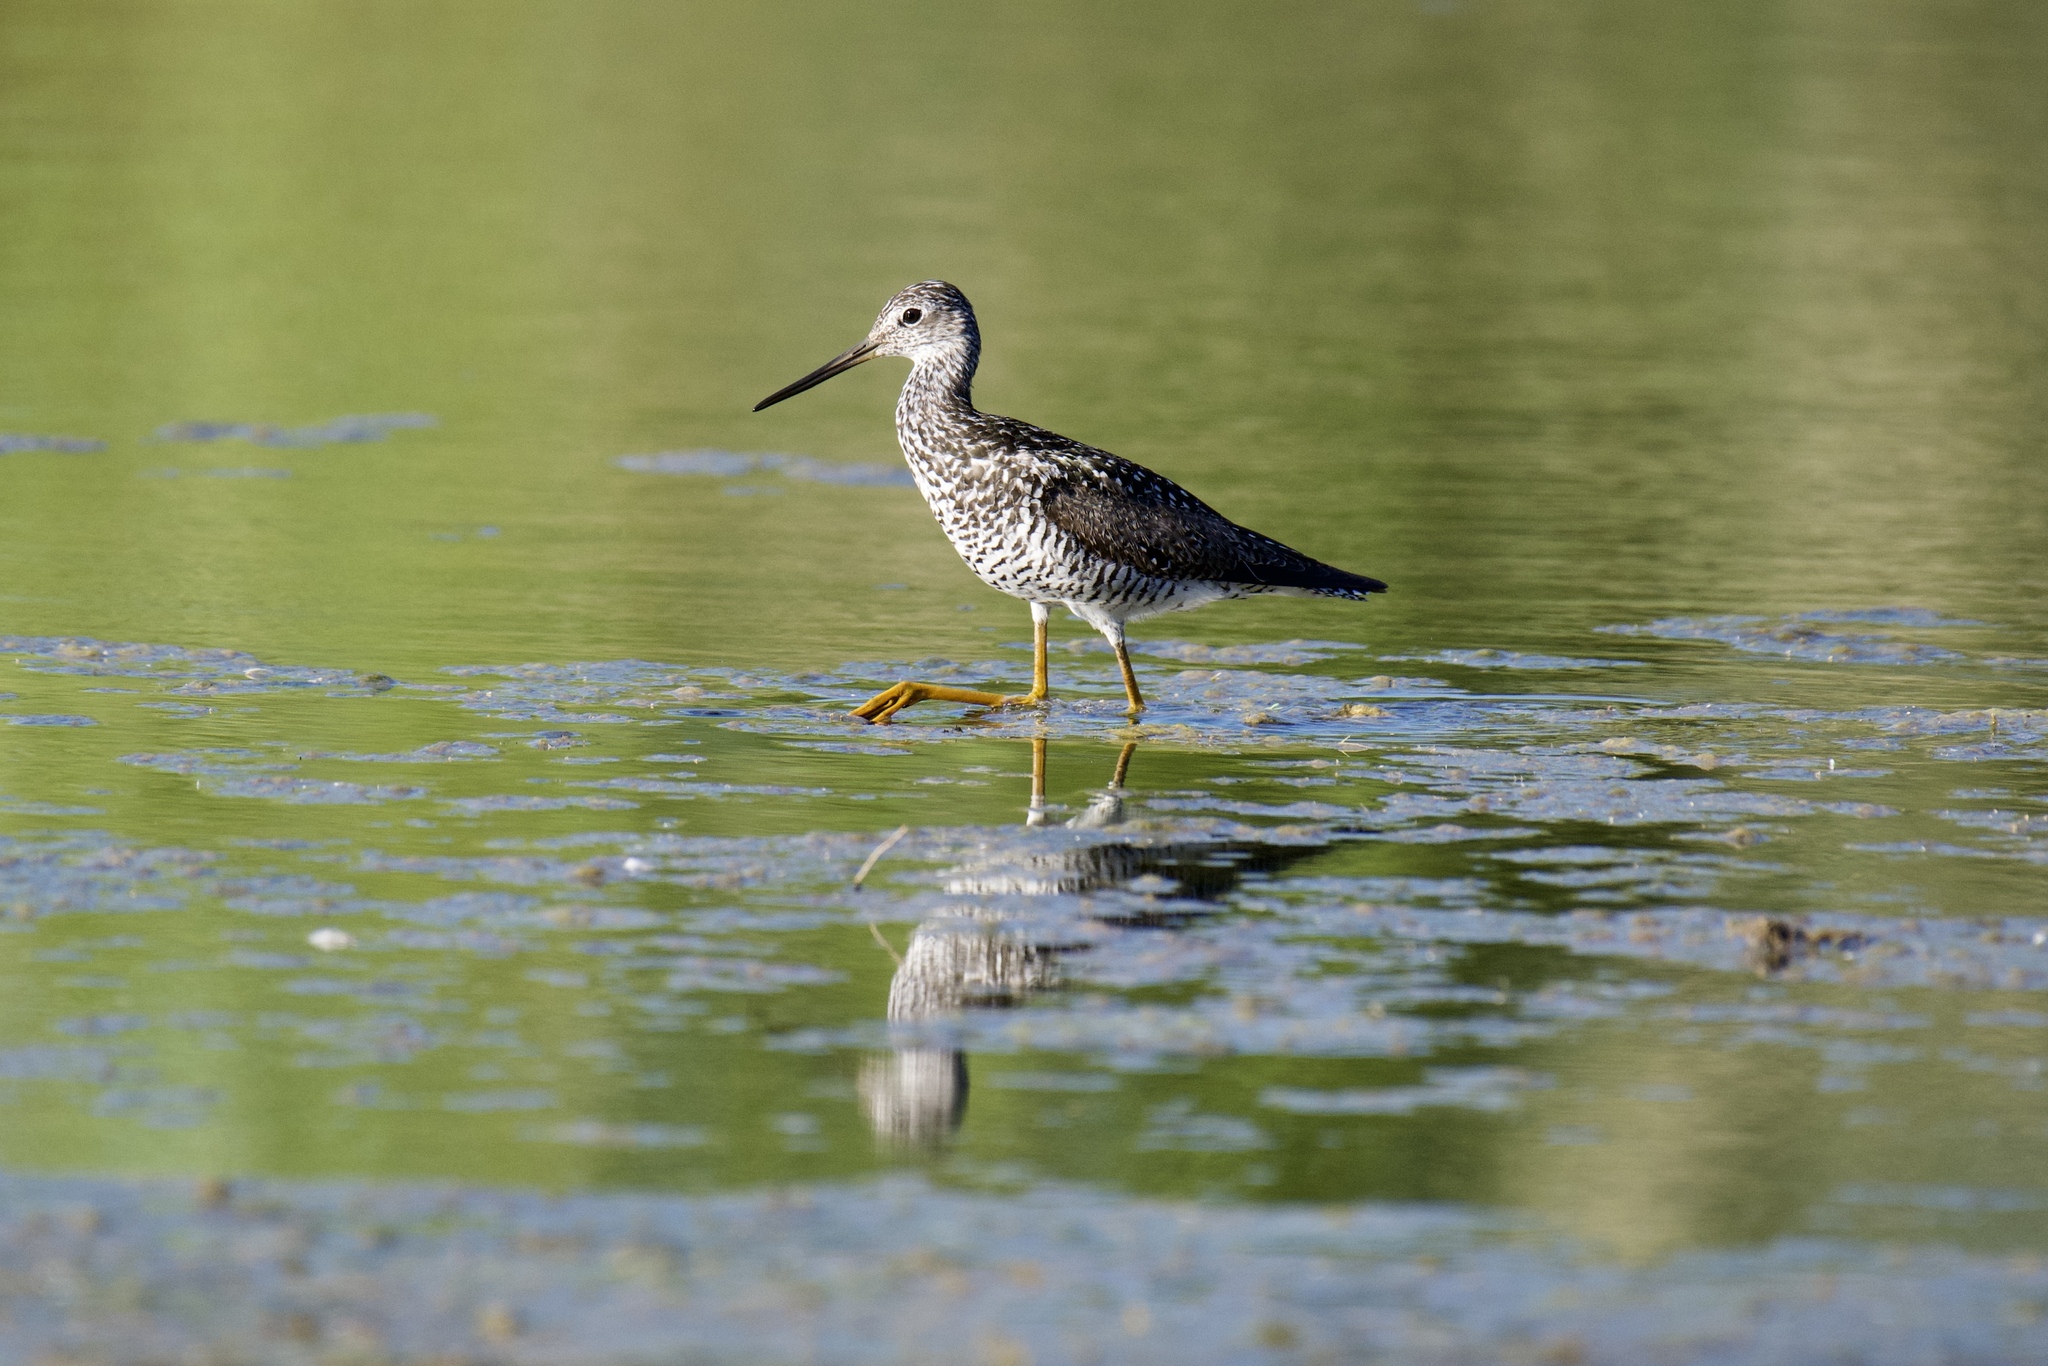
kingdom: Animalia
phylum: Chordata
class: Aves
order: Charadriiformes
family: Scolopacidae
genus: Tringa
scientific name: Tringa melanoleuca
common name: Greater yellowlegs
